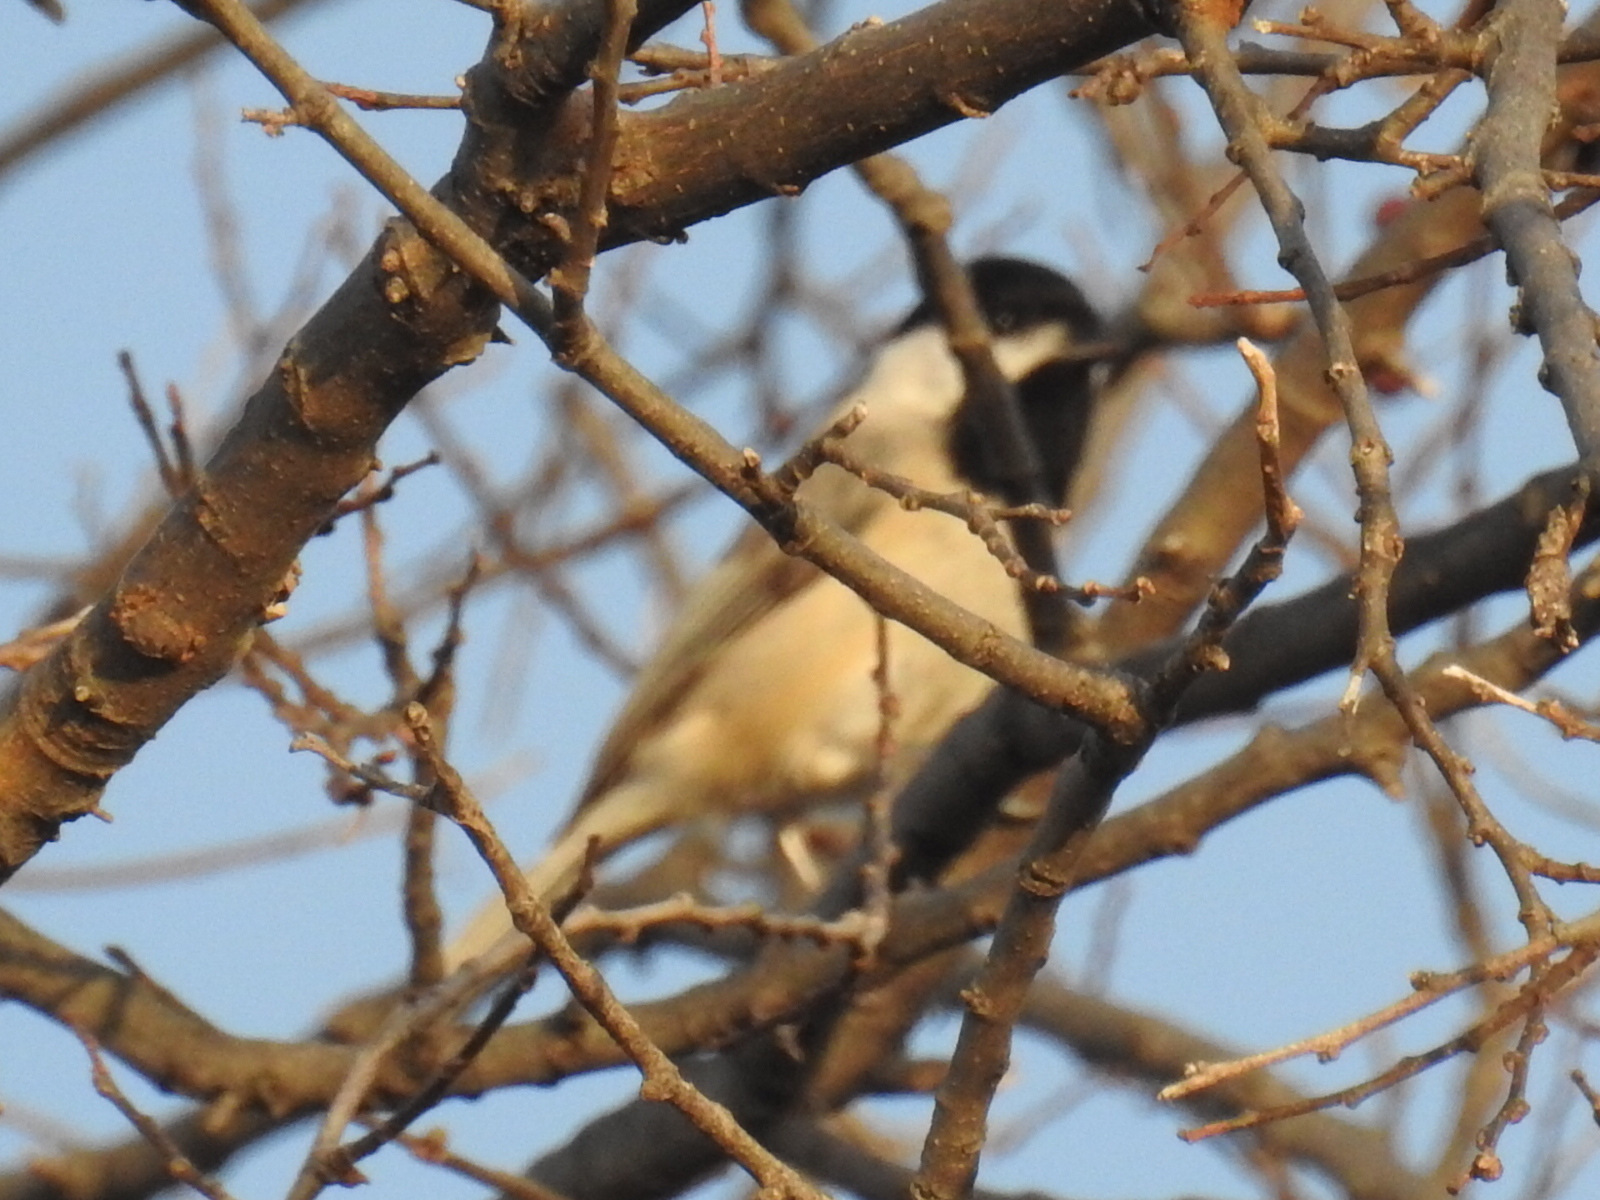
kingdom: Animalia
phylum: Chordata
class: Aves
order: Passeriformes
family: Paridae
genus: Poecile
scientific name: Poecile carolinensis
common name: Carolina chickadee
